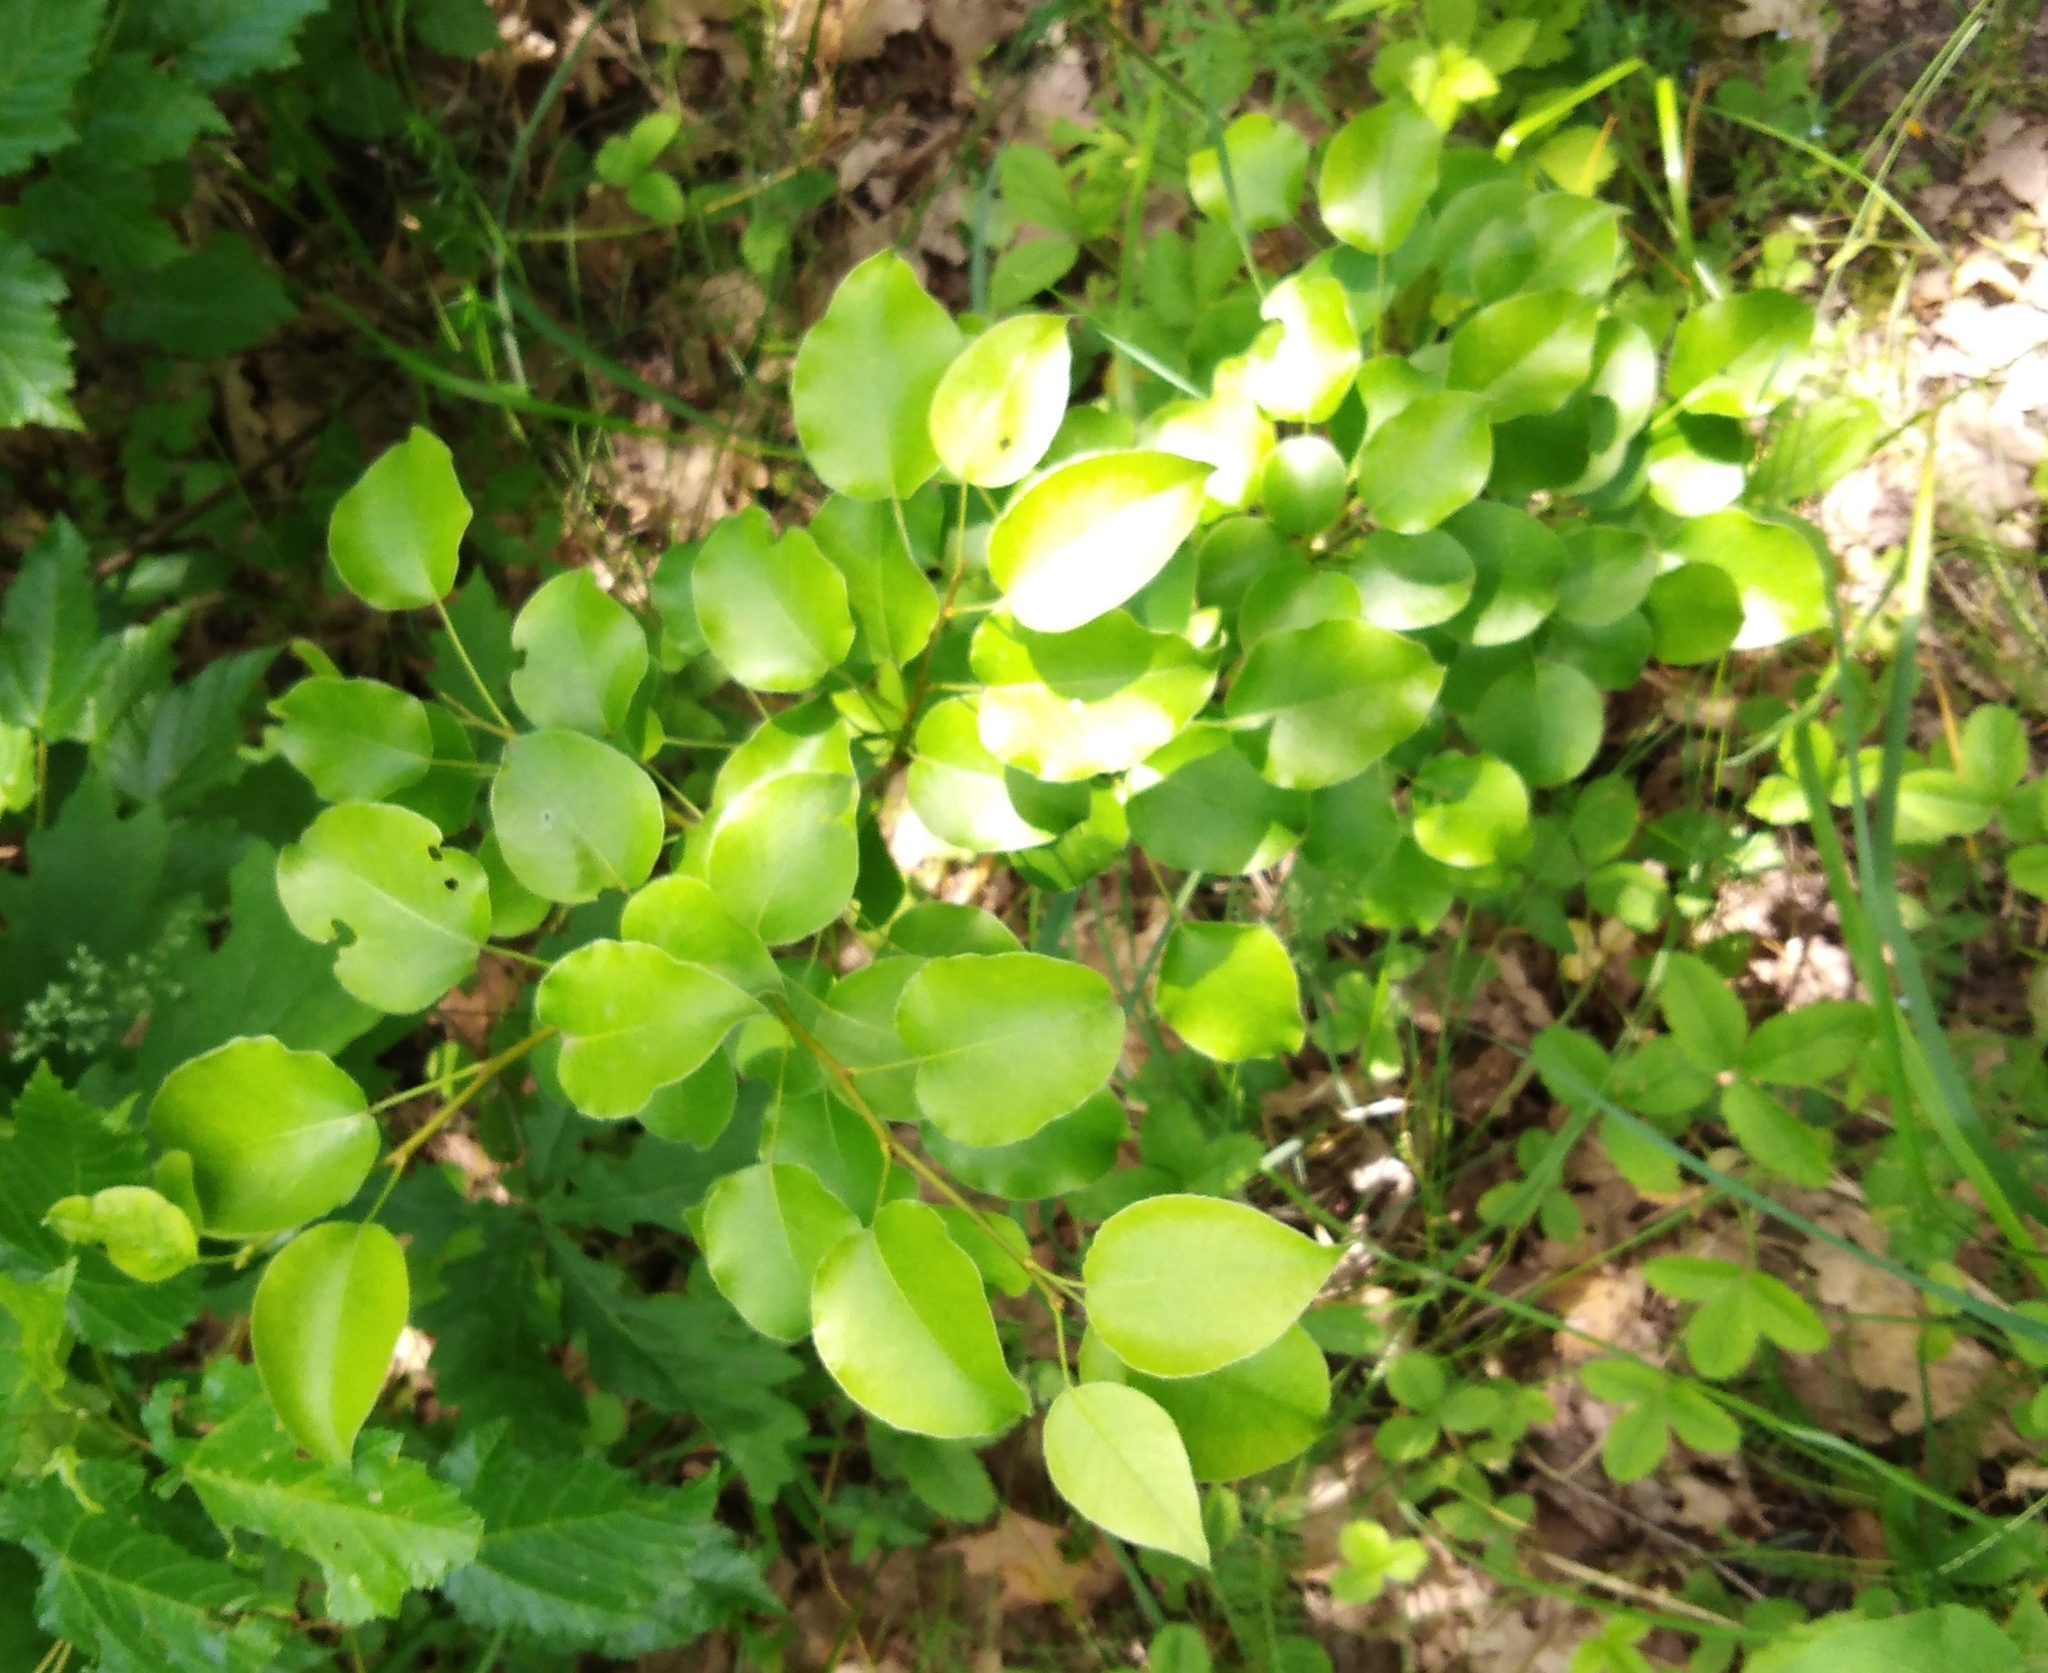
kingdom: Plantae
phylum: Tracheophyta
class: Magnoliopsida
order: Rosales
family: Rosaceae
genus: Pyrus
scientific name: Pyrus communis
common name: Pear
